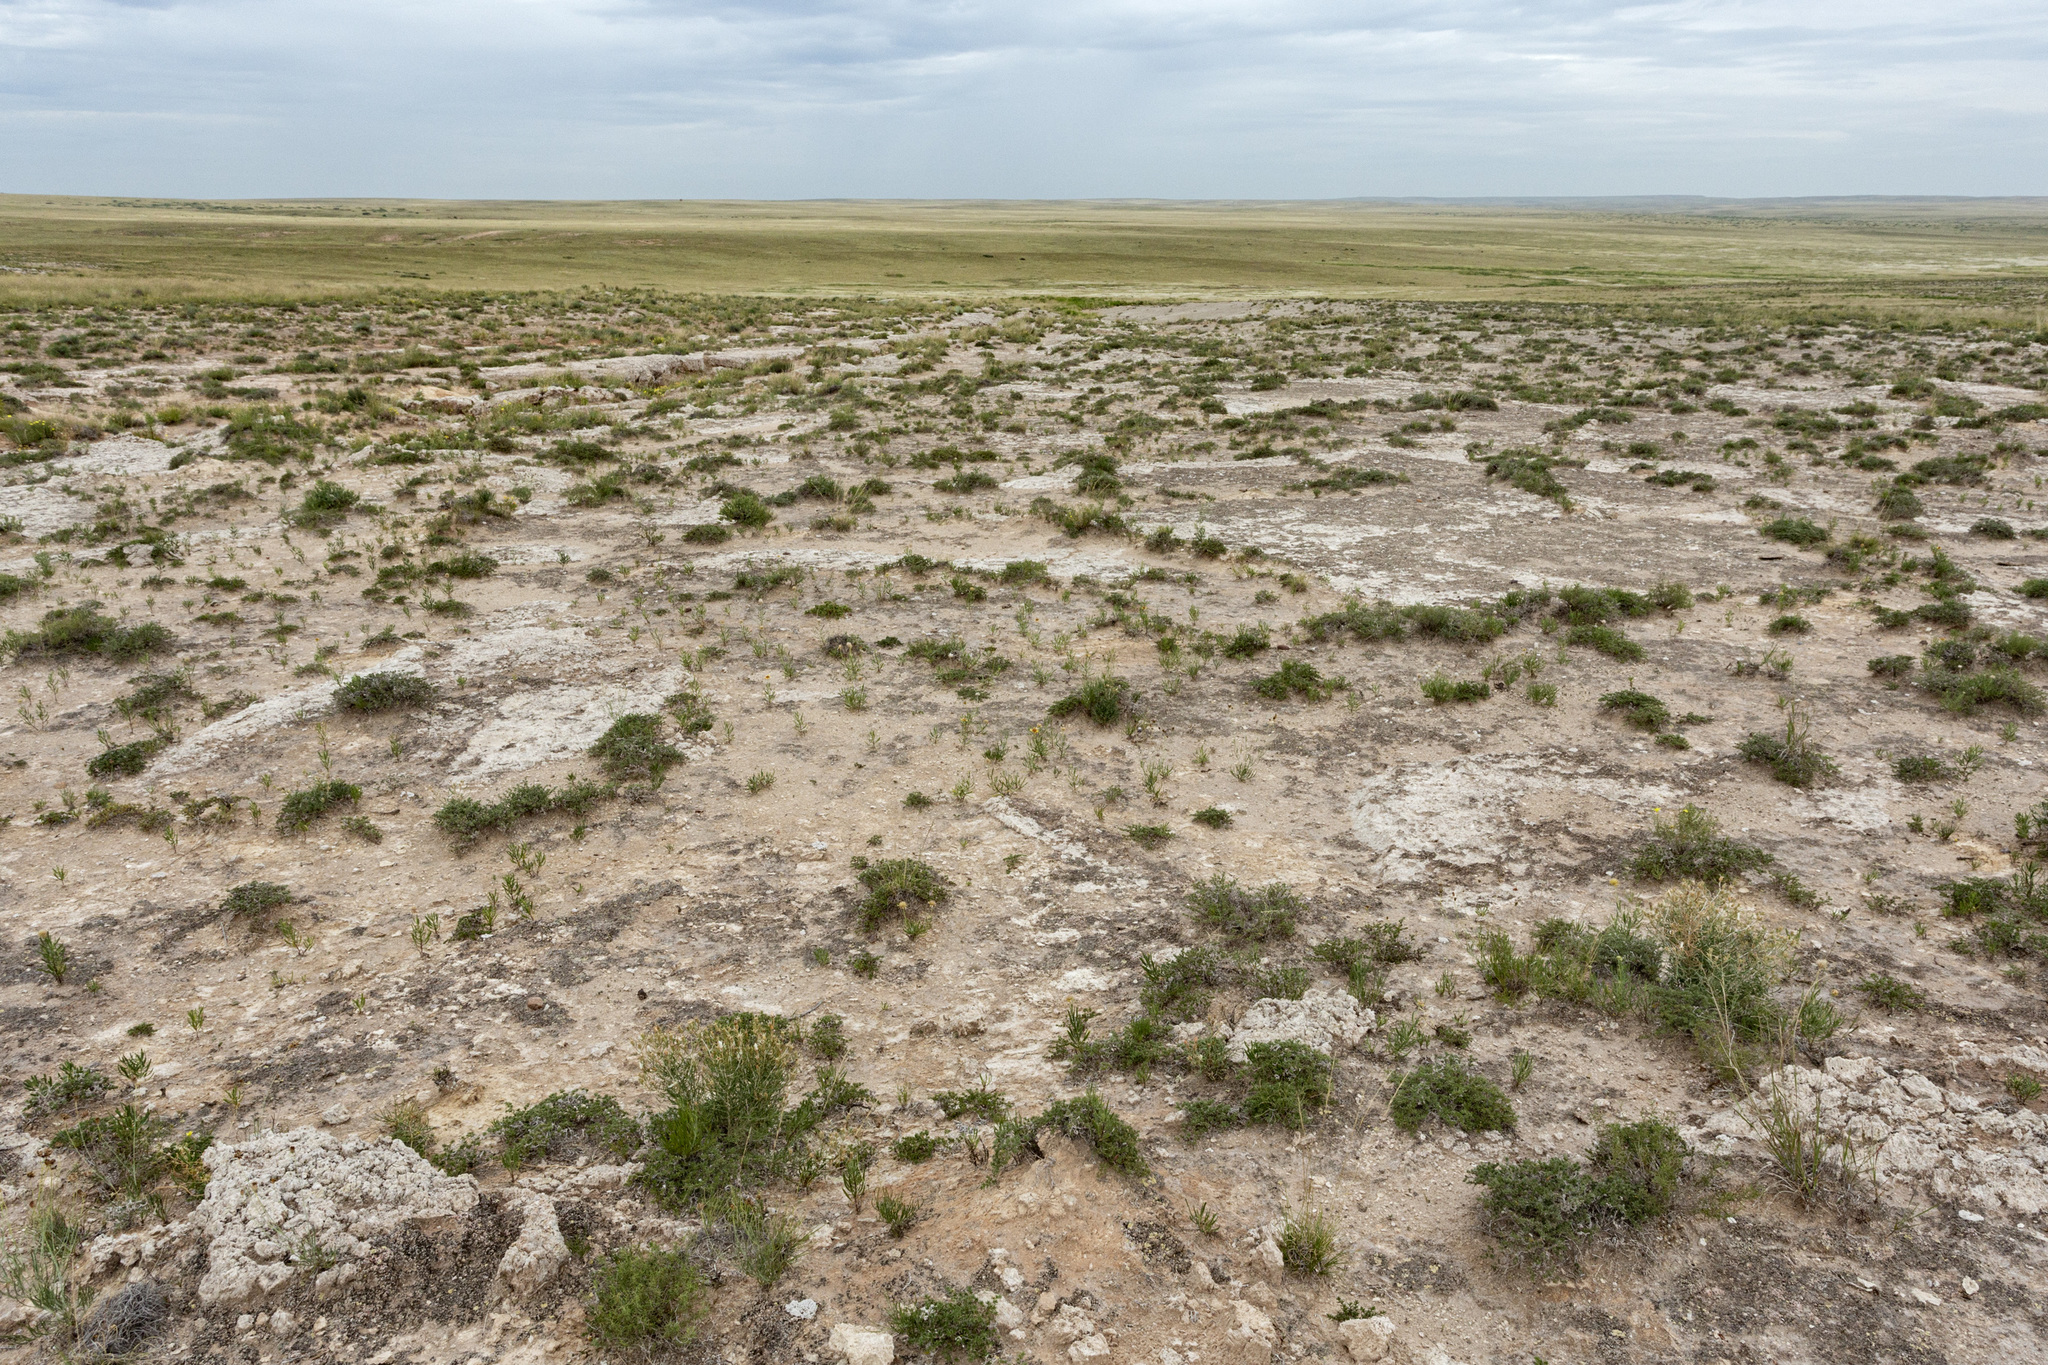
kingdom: Plantae
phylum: Tracheophyta
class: Magnoliopsida
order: Caryophyllales
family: Nyctaginaceae
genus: Abronia
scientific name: Abronia carletonii
